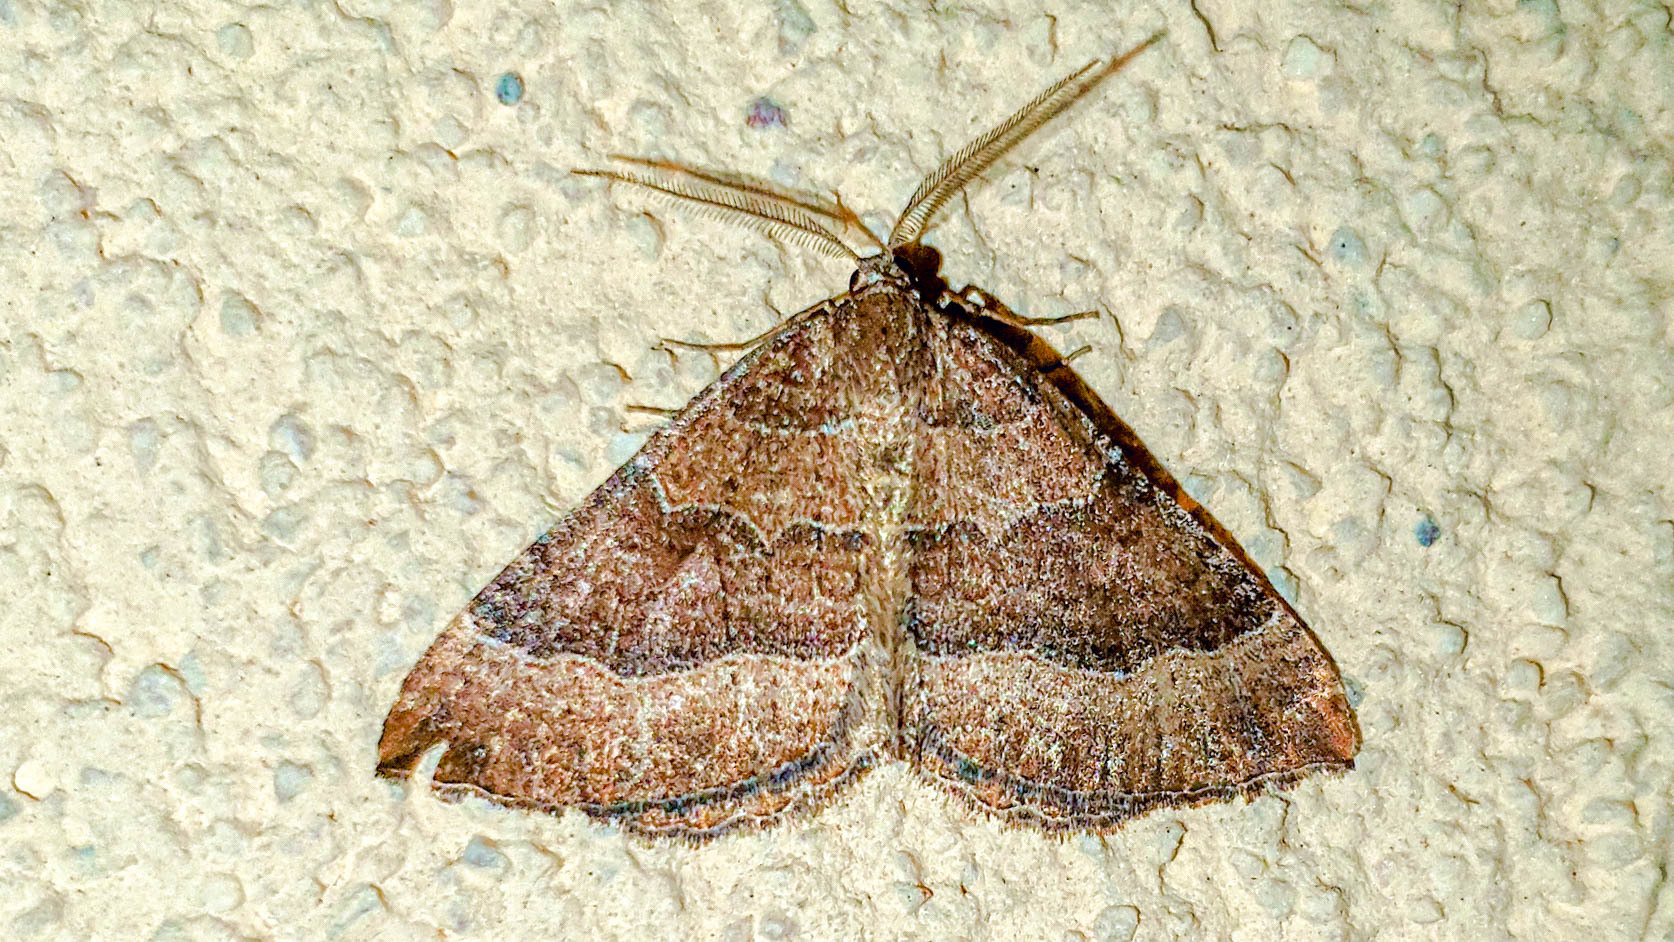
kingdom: Animalia
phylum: Arthropoda
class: Insecta
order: Lepidoptera
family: Geometridae
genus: Larentia
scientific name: Larentia clavaria
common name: Mallow
